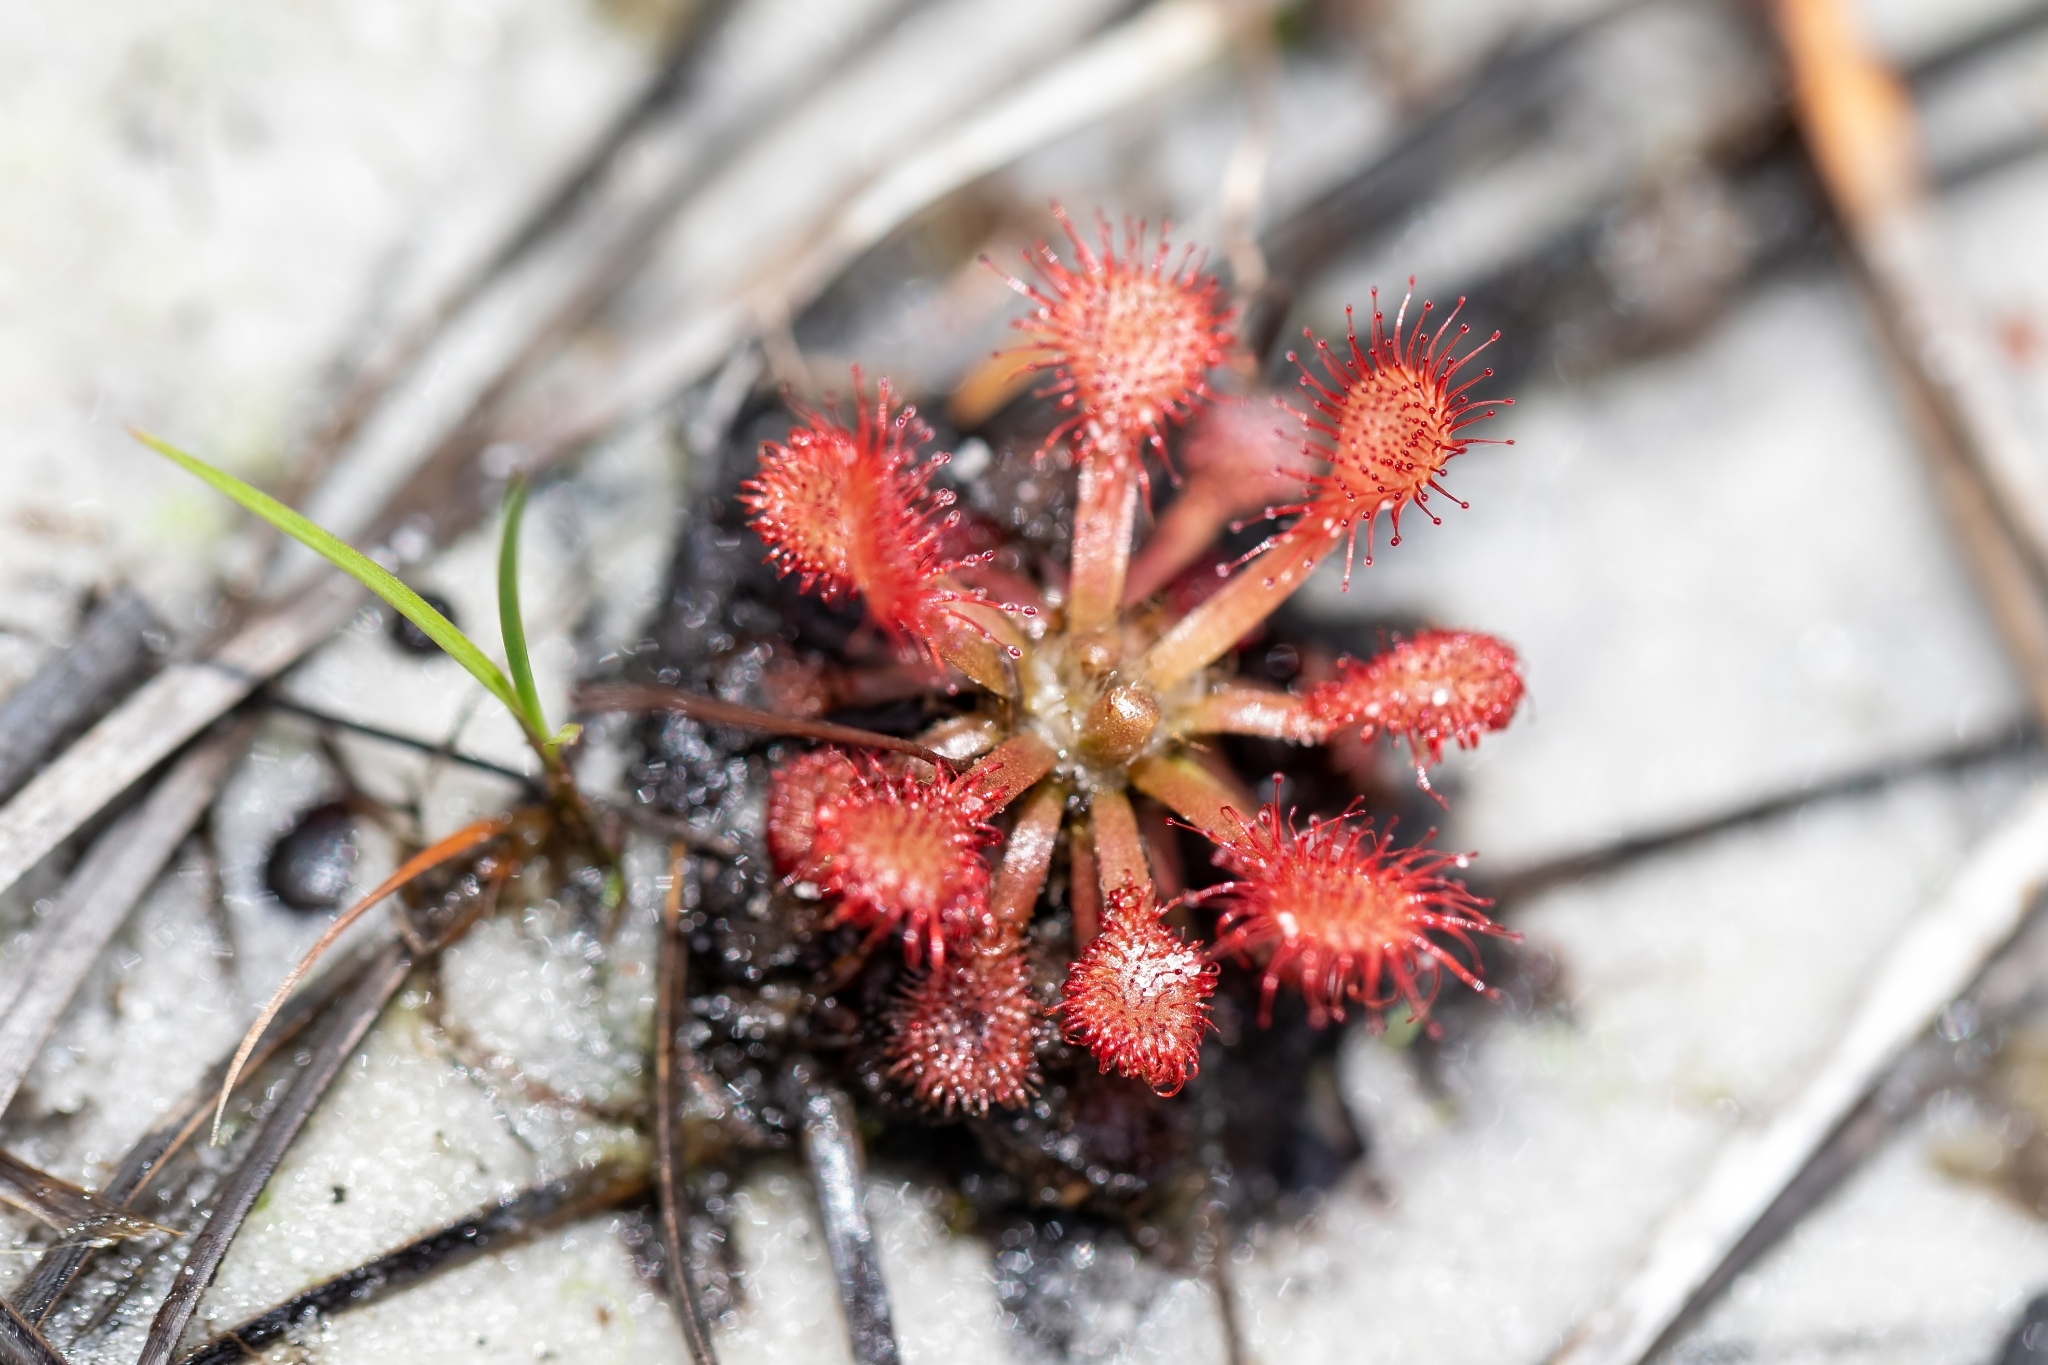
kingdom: Plantae
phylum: Tracheophyta
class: Magnoliopsida
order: Caryophyllales
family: Droseraceae
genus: Drosera
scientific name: Drosera capillaris
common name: Pink sundew
